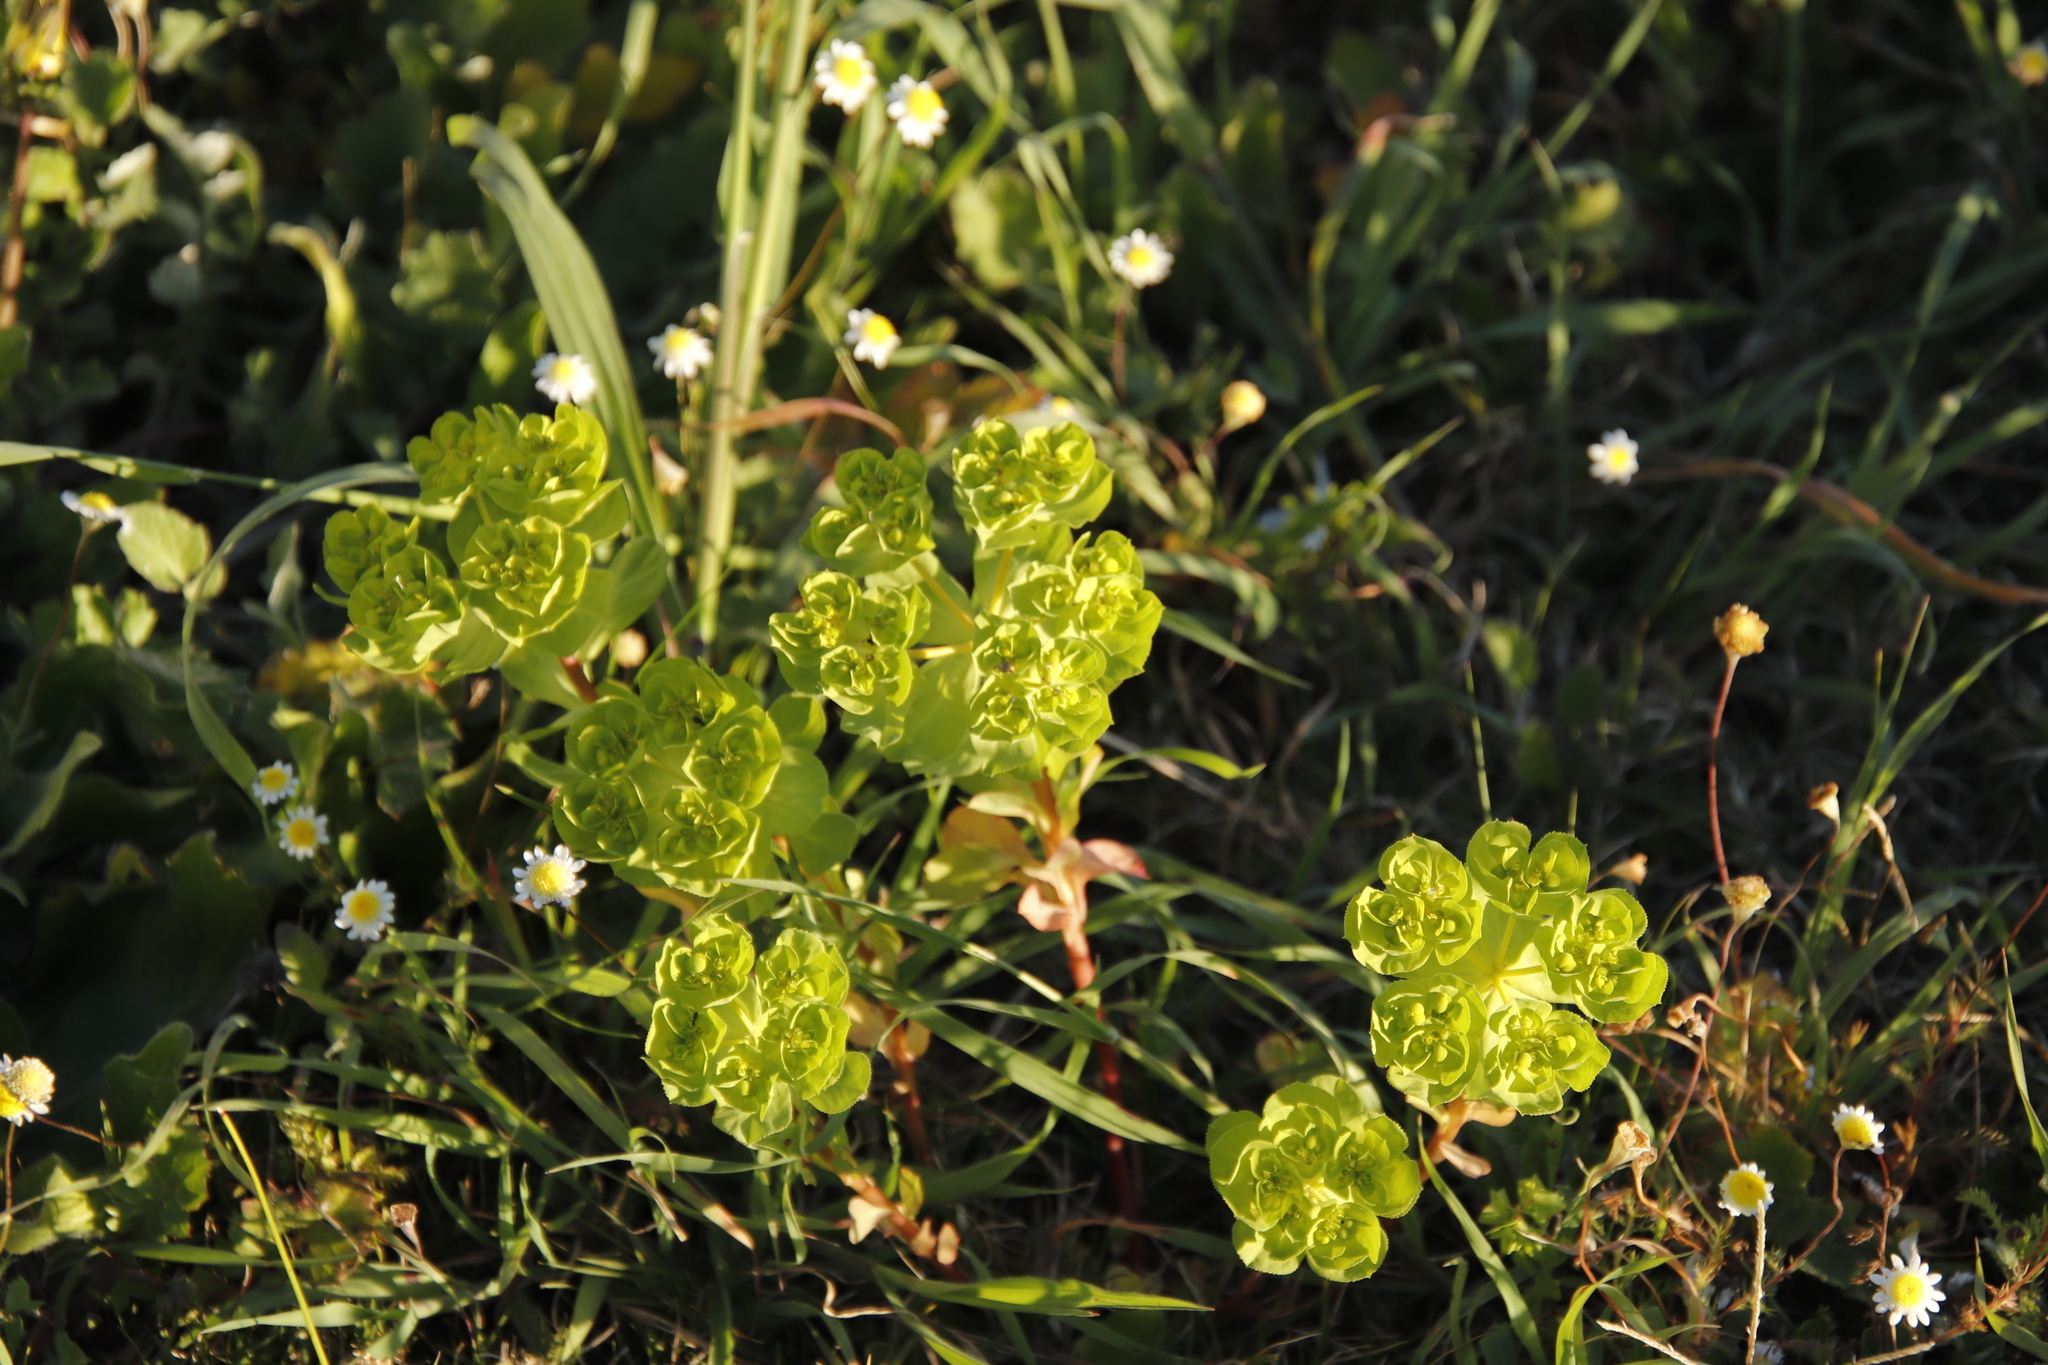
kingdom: Plantae
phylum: Tracheophyta
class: Magnoliopsida
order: Malpighiales
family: Euphorbiaceae
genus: Euphorbia
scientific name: Euphorbia helioscopia
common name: Sun spurge
